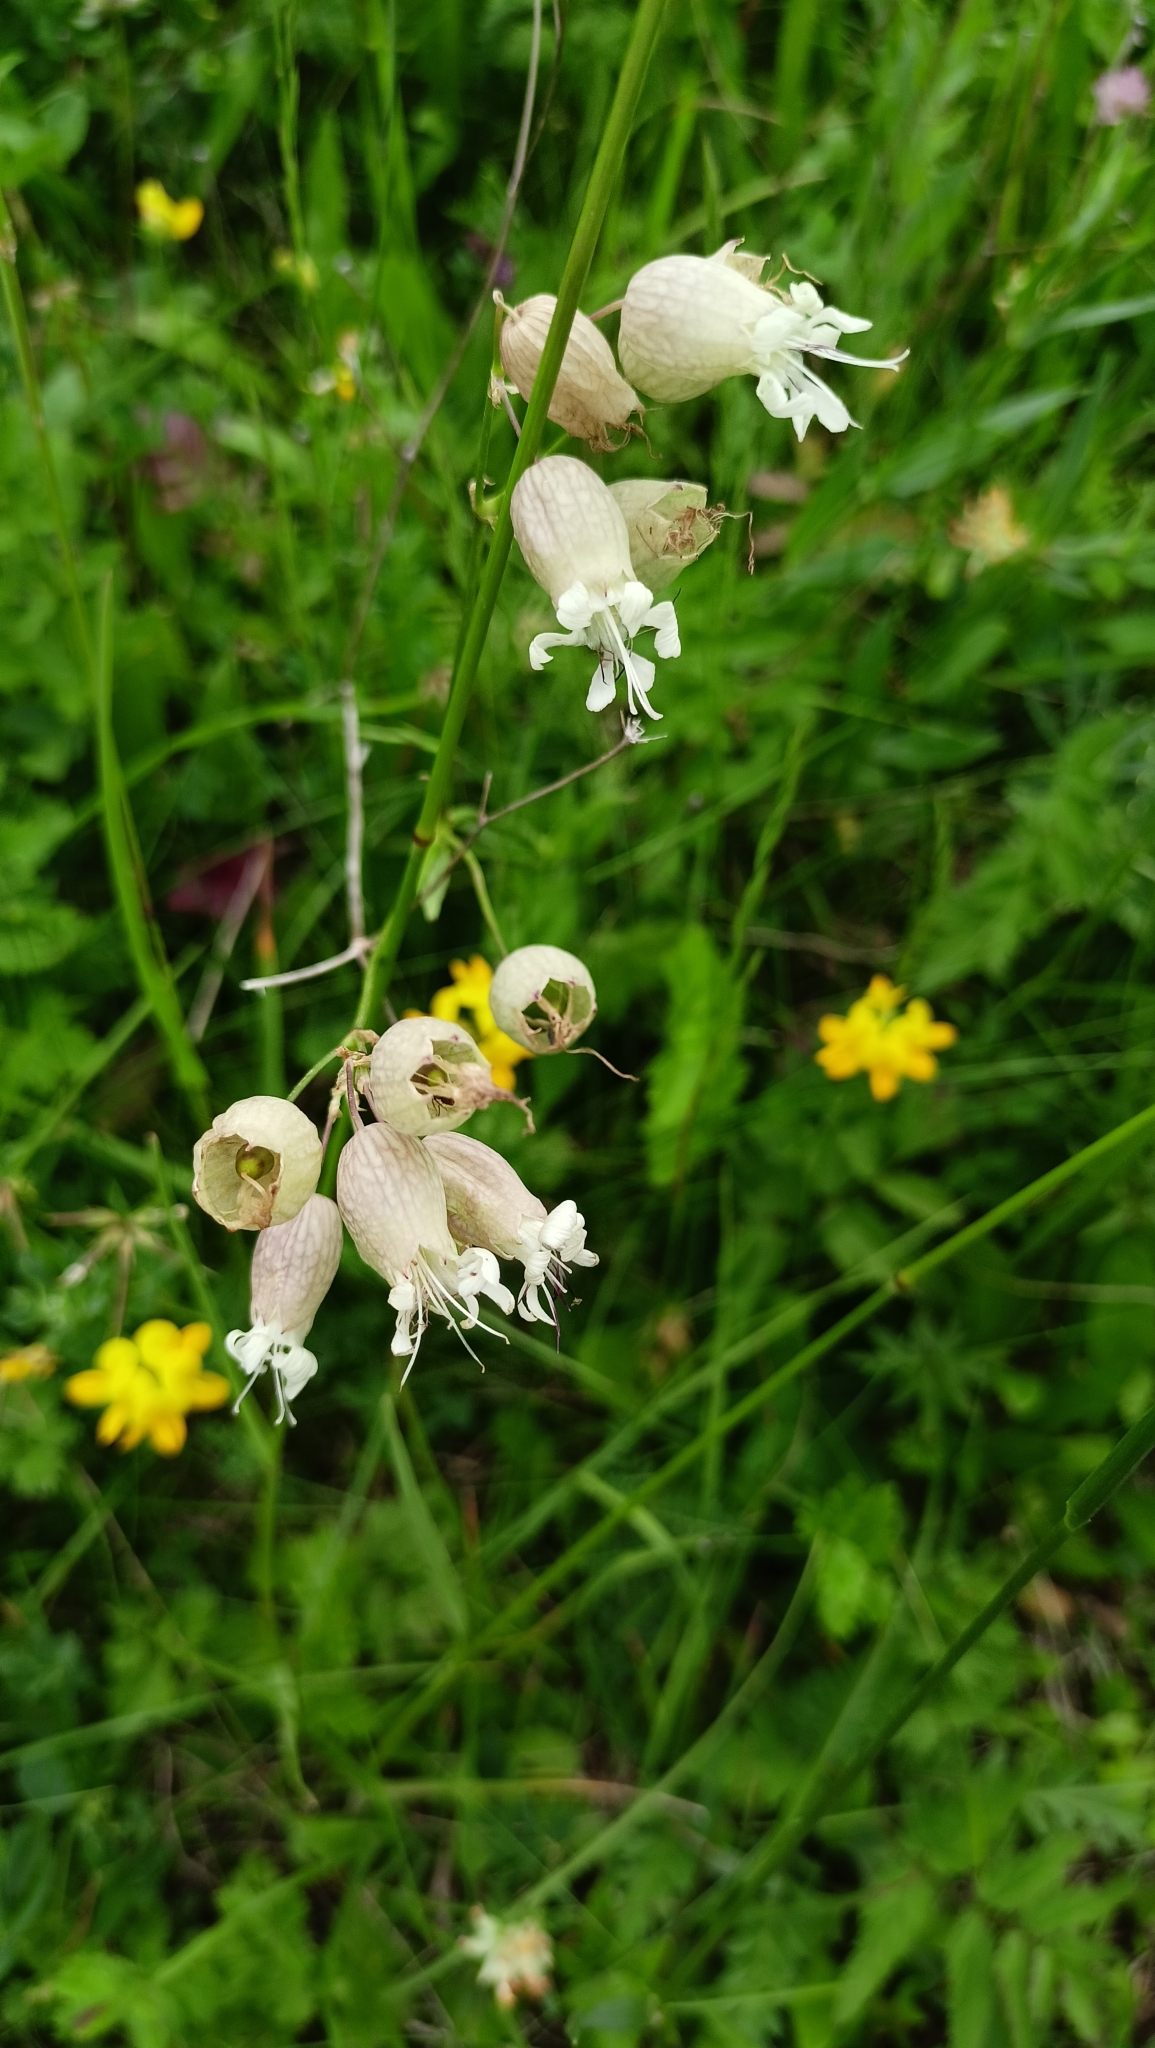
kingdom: Plantae
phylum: Tracheophyta
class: Magnoliopsida
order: Caryophyllales
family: Caryophyllaceae
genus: Silene
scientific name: Silene vulgaris
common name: Bladder campion
